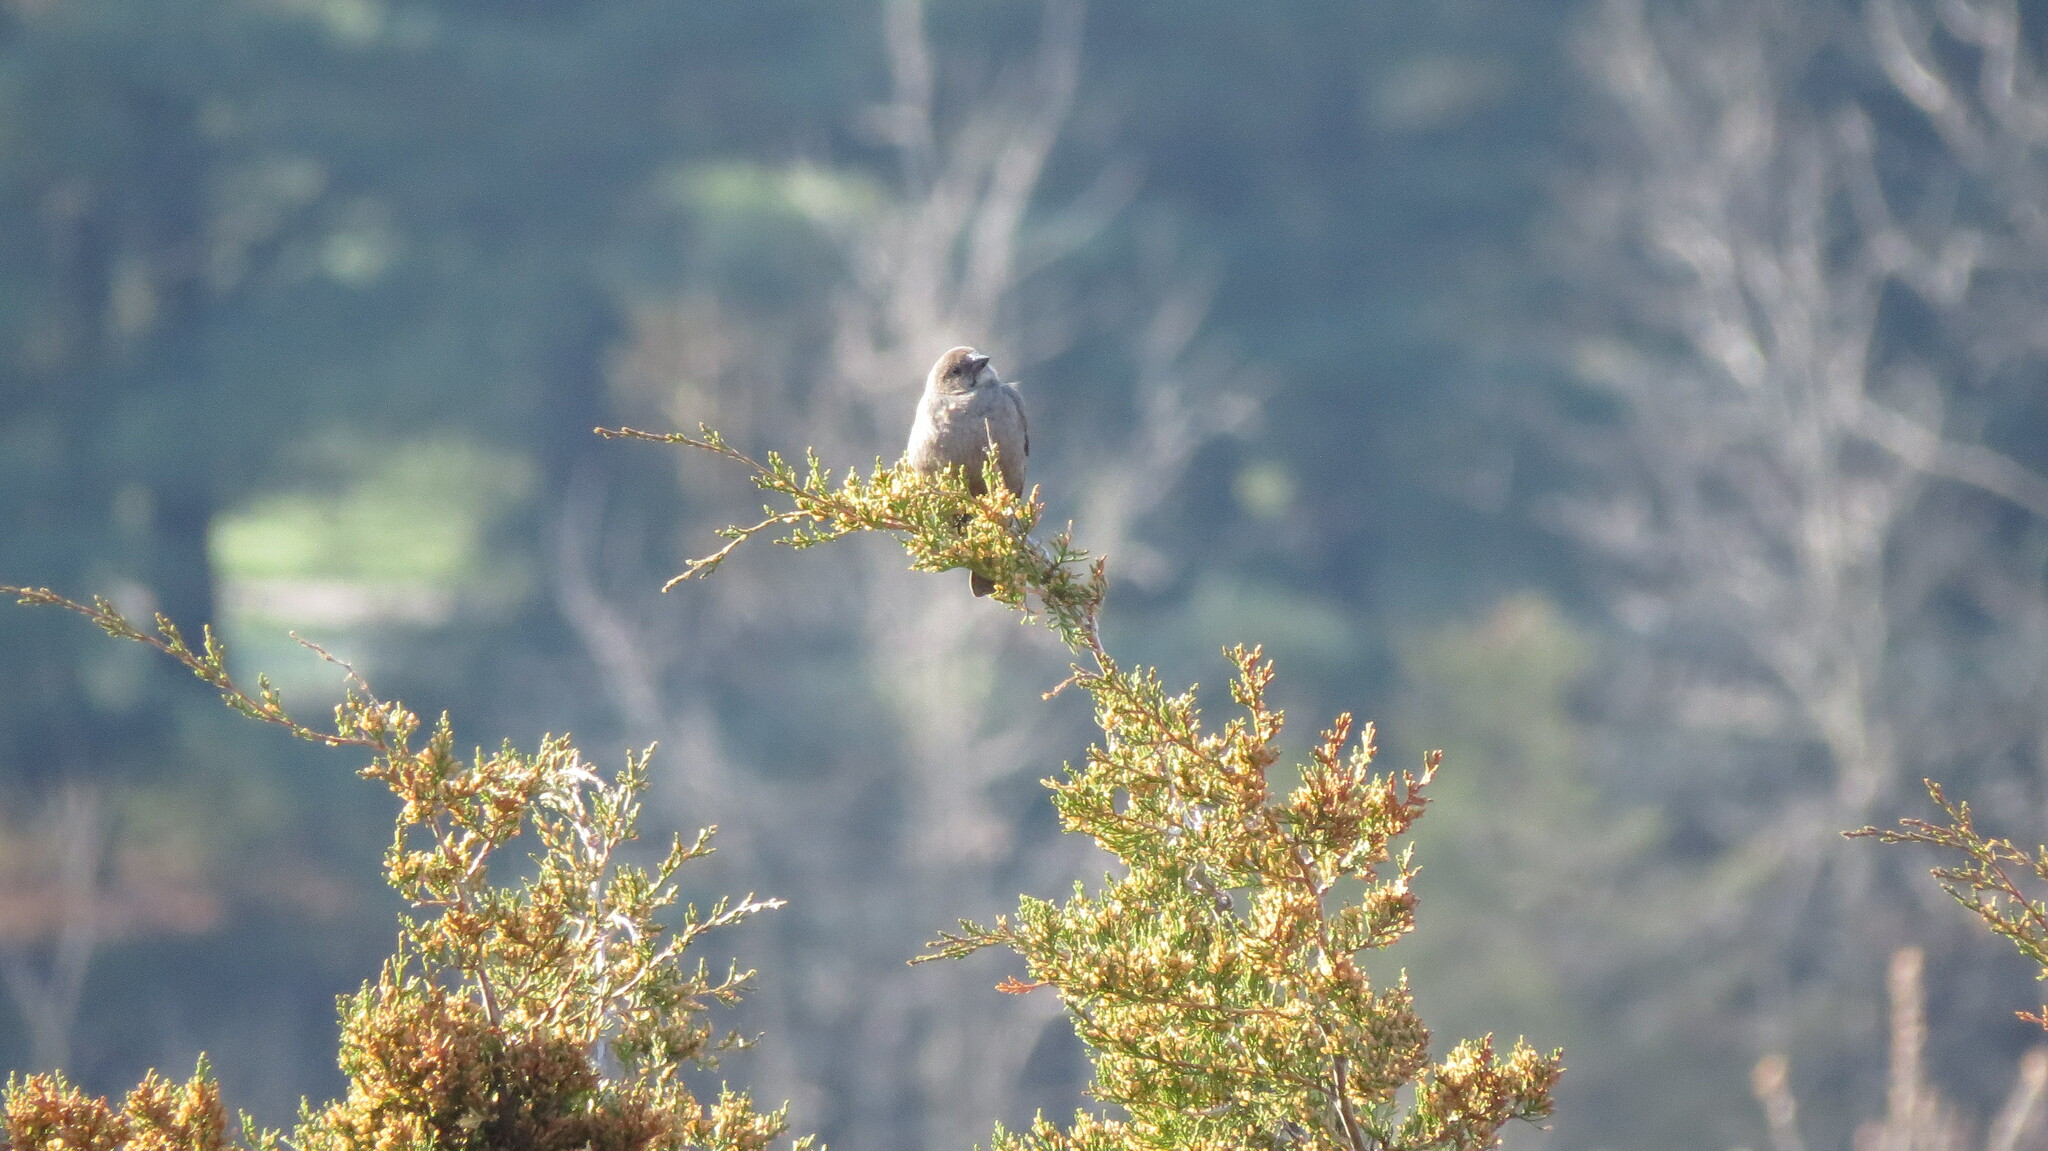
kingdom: Animalia
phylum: Chordata
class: Aves
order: Passeriformes
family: Icteridae
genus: Molothrus
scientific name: Molothrus ater
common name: Brown-headed cowbird
